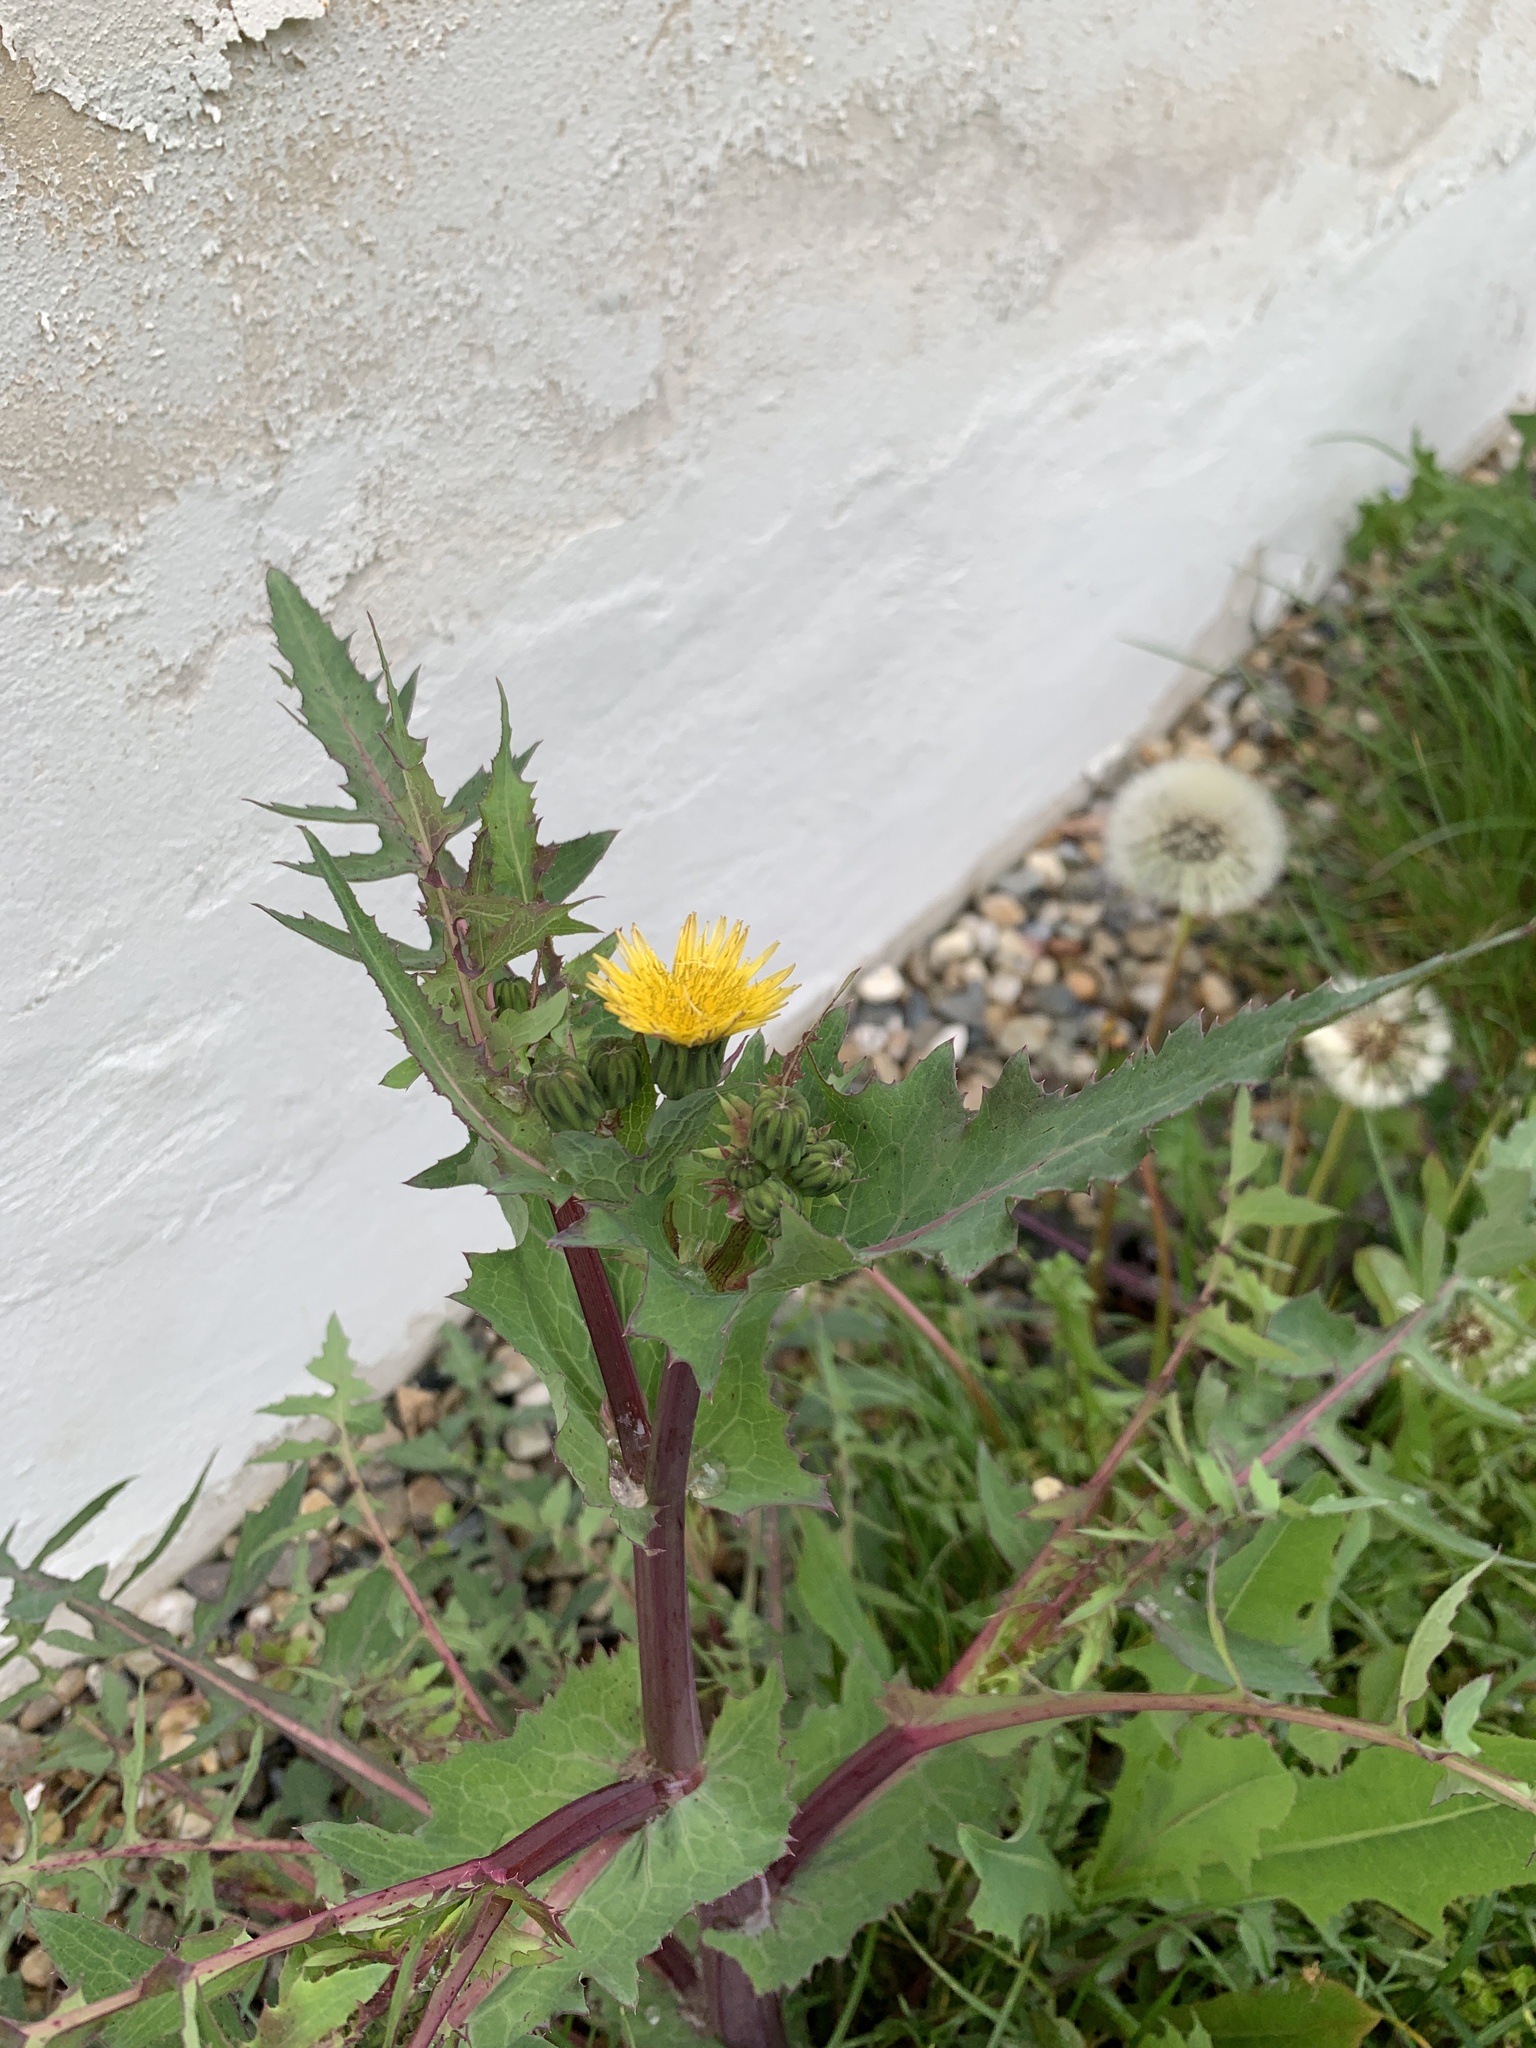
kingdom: Plantae
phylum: Tracheophyta
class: Magnoliopsida
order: Asterales
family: Asteraceae
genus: Sonchus
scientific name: Sonchus oleraceus
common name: Common sowthistle
